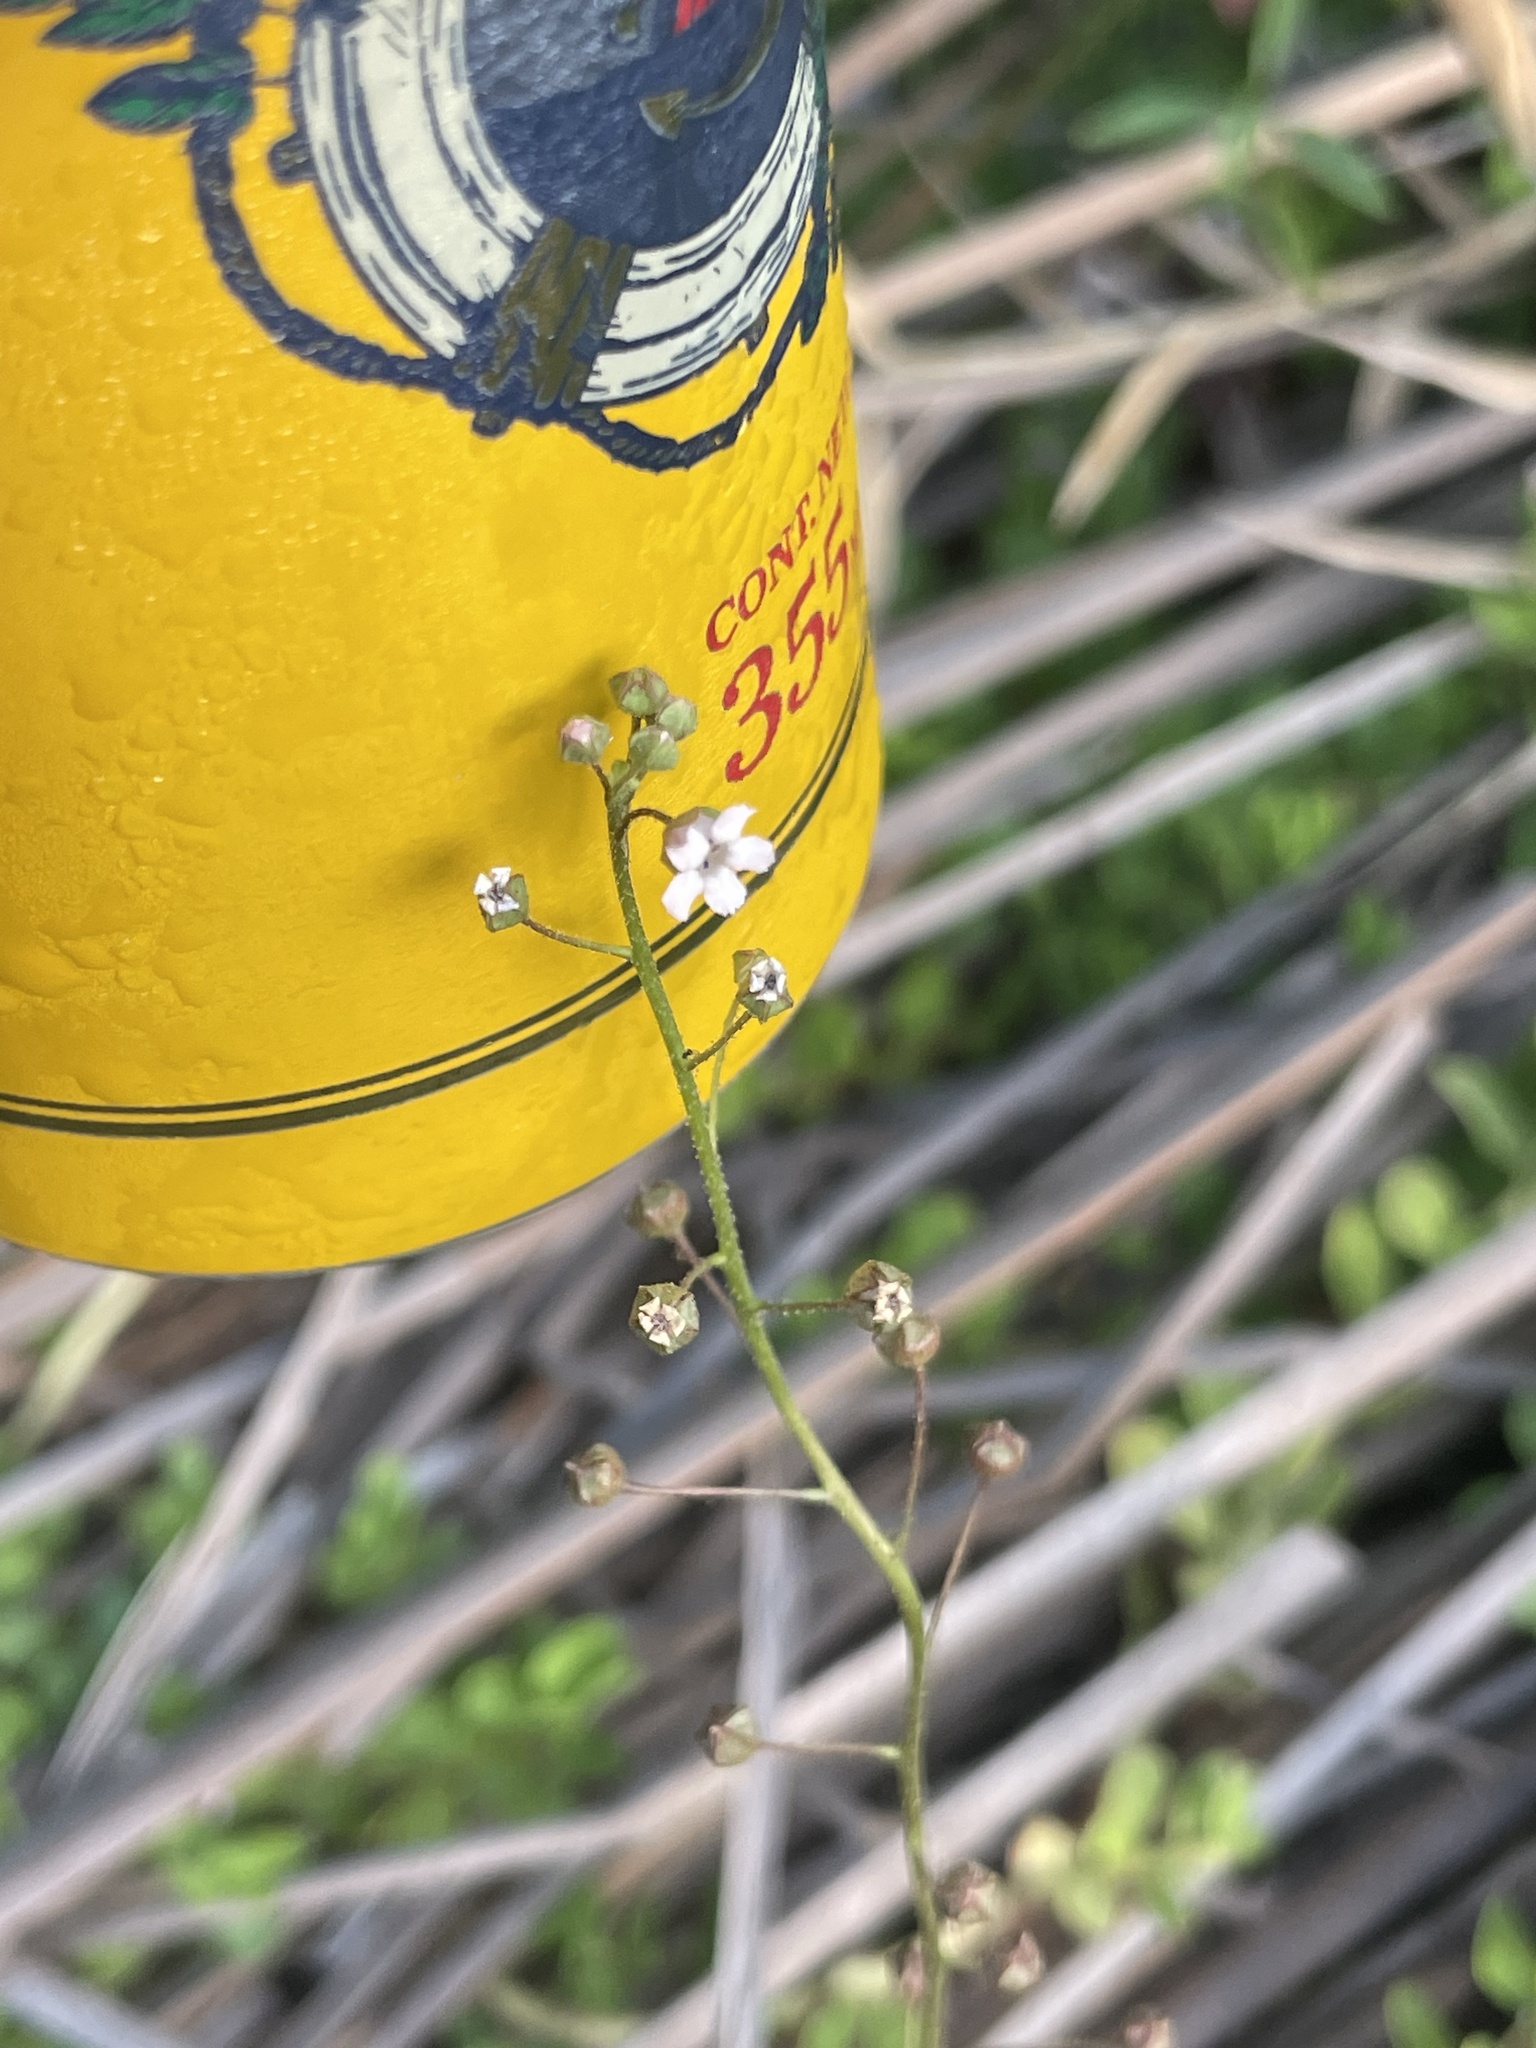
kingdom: Plantae
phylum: Tracheophyta
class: Magnoliopsida
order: Ericales
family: Primulaceae
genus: Samolus
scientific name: Samolus ebracteatus
